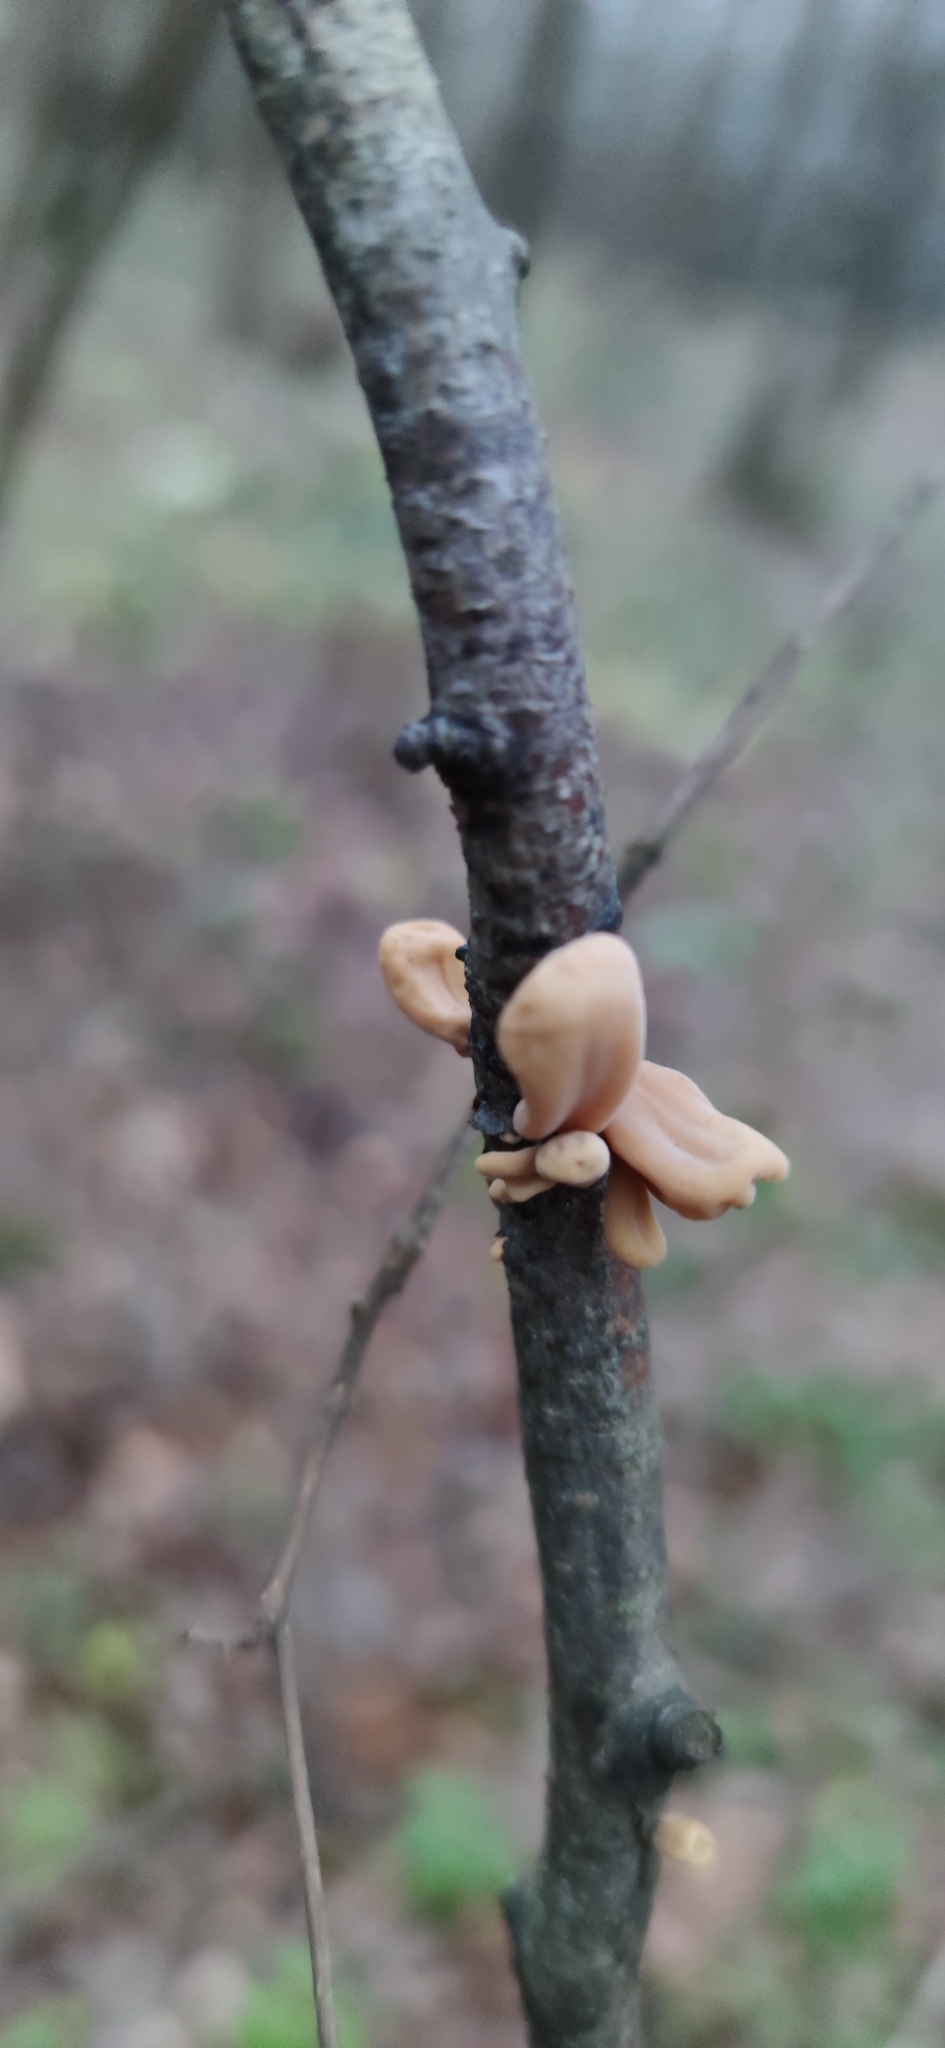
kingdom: Fungi
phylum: Basidiomycota
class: Agaricomycetes
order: Agaricales
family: Typhulaceae
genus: Typhula
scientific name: Typhula contorta
